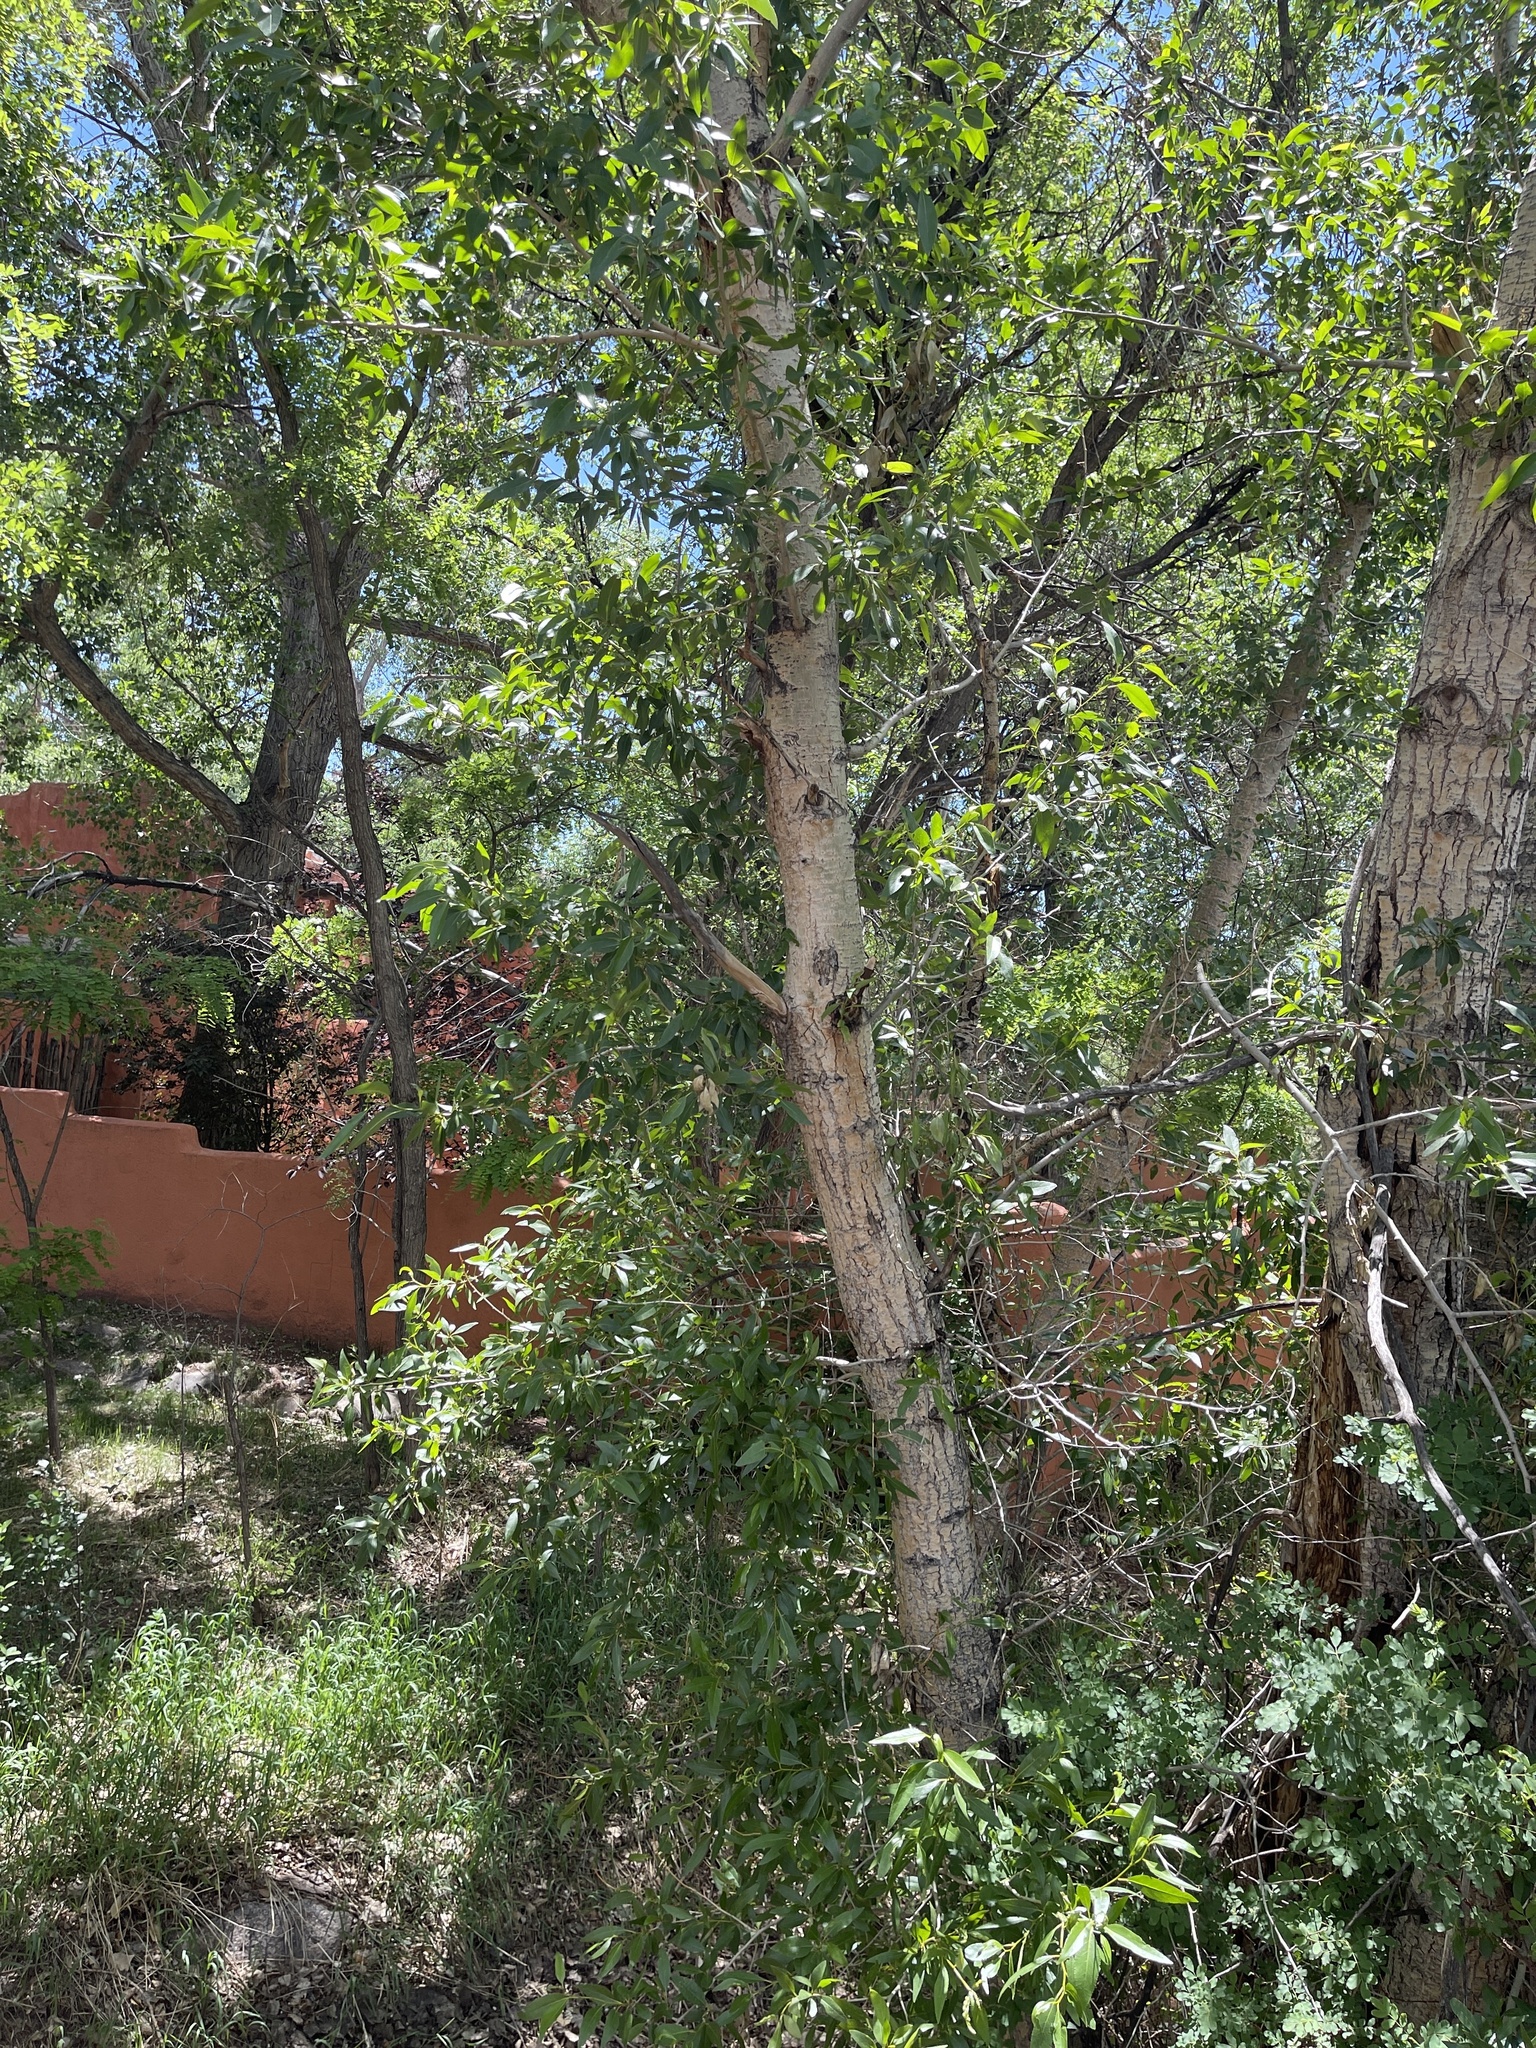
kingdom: Plantae
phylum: Tracheophyta
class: Magnoliopsida
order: Malpighiales
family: Salicaceae
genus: Populus
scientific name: Populus angustifolia
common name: Willow cottonwood
